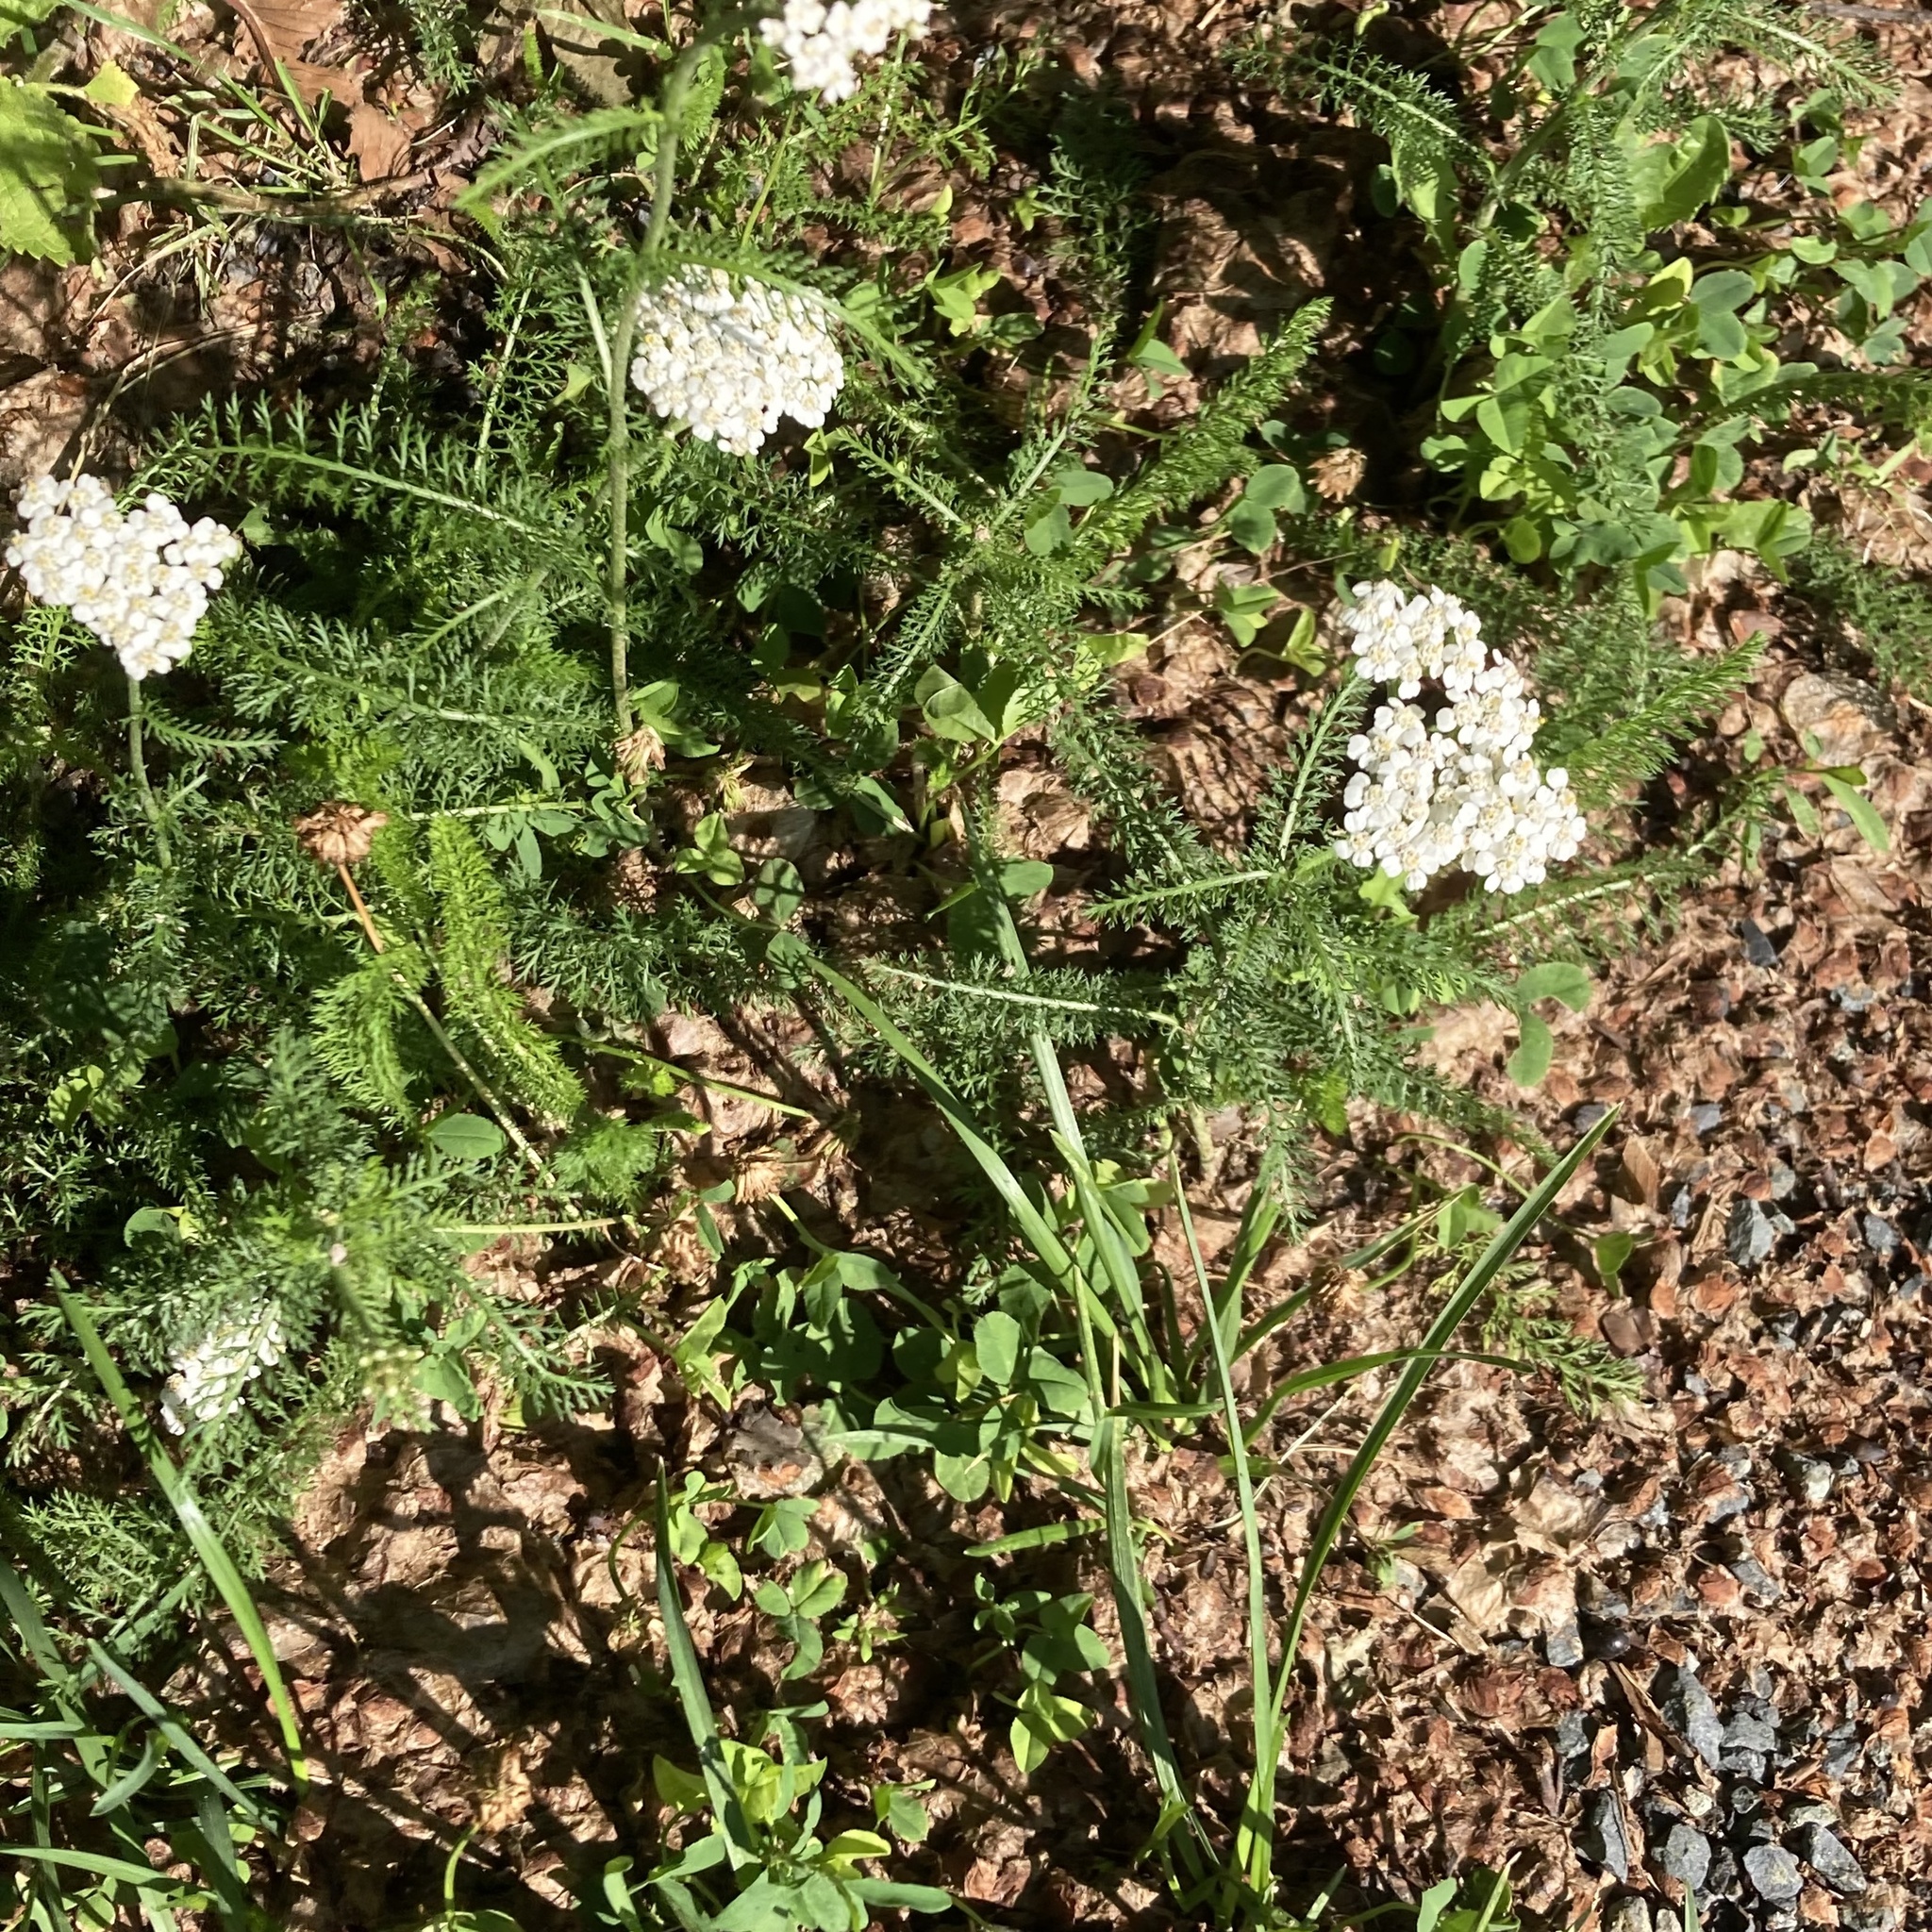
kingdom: Plantae
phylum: Tracheophyta
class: Magnoliopsida
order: Asterales
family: Asteraceae
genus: Achillea
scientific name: Achillea millefolium
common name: Yarrow
